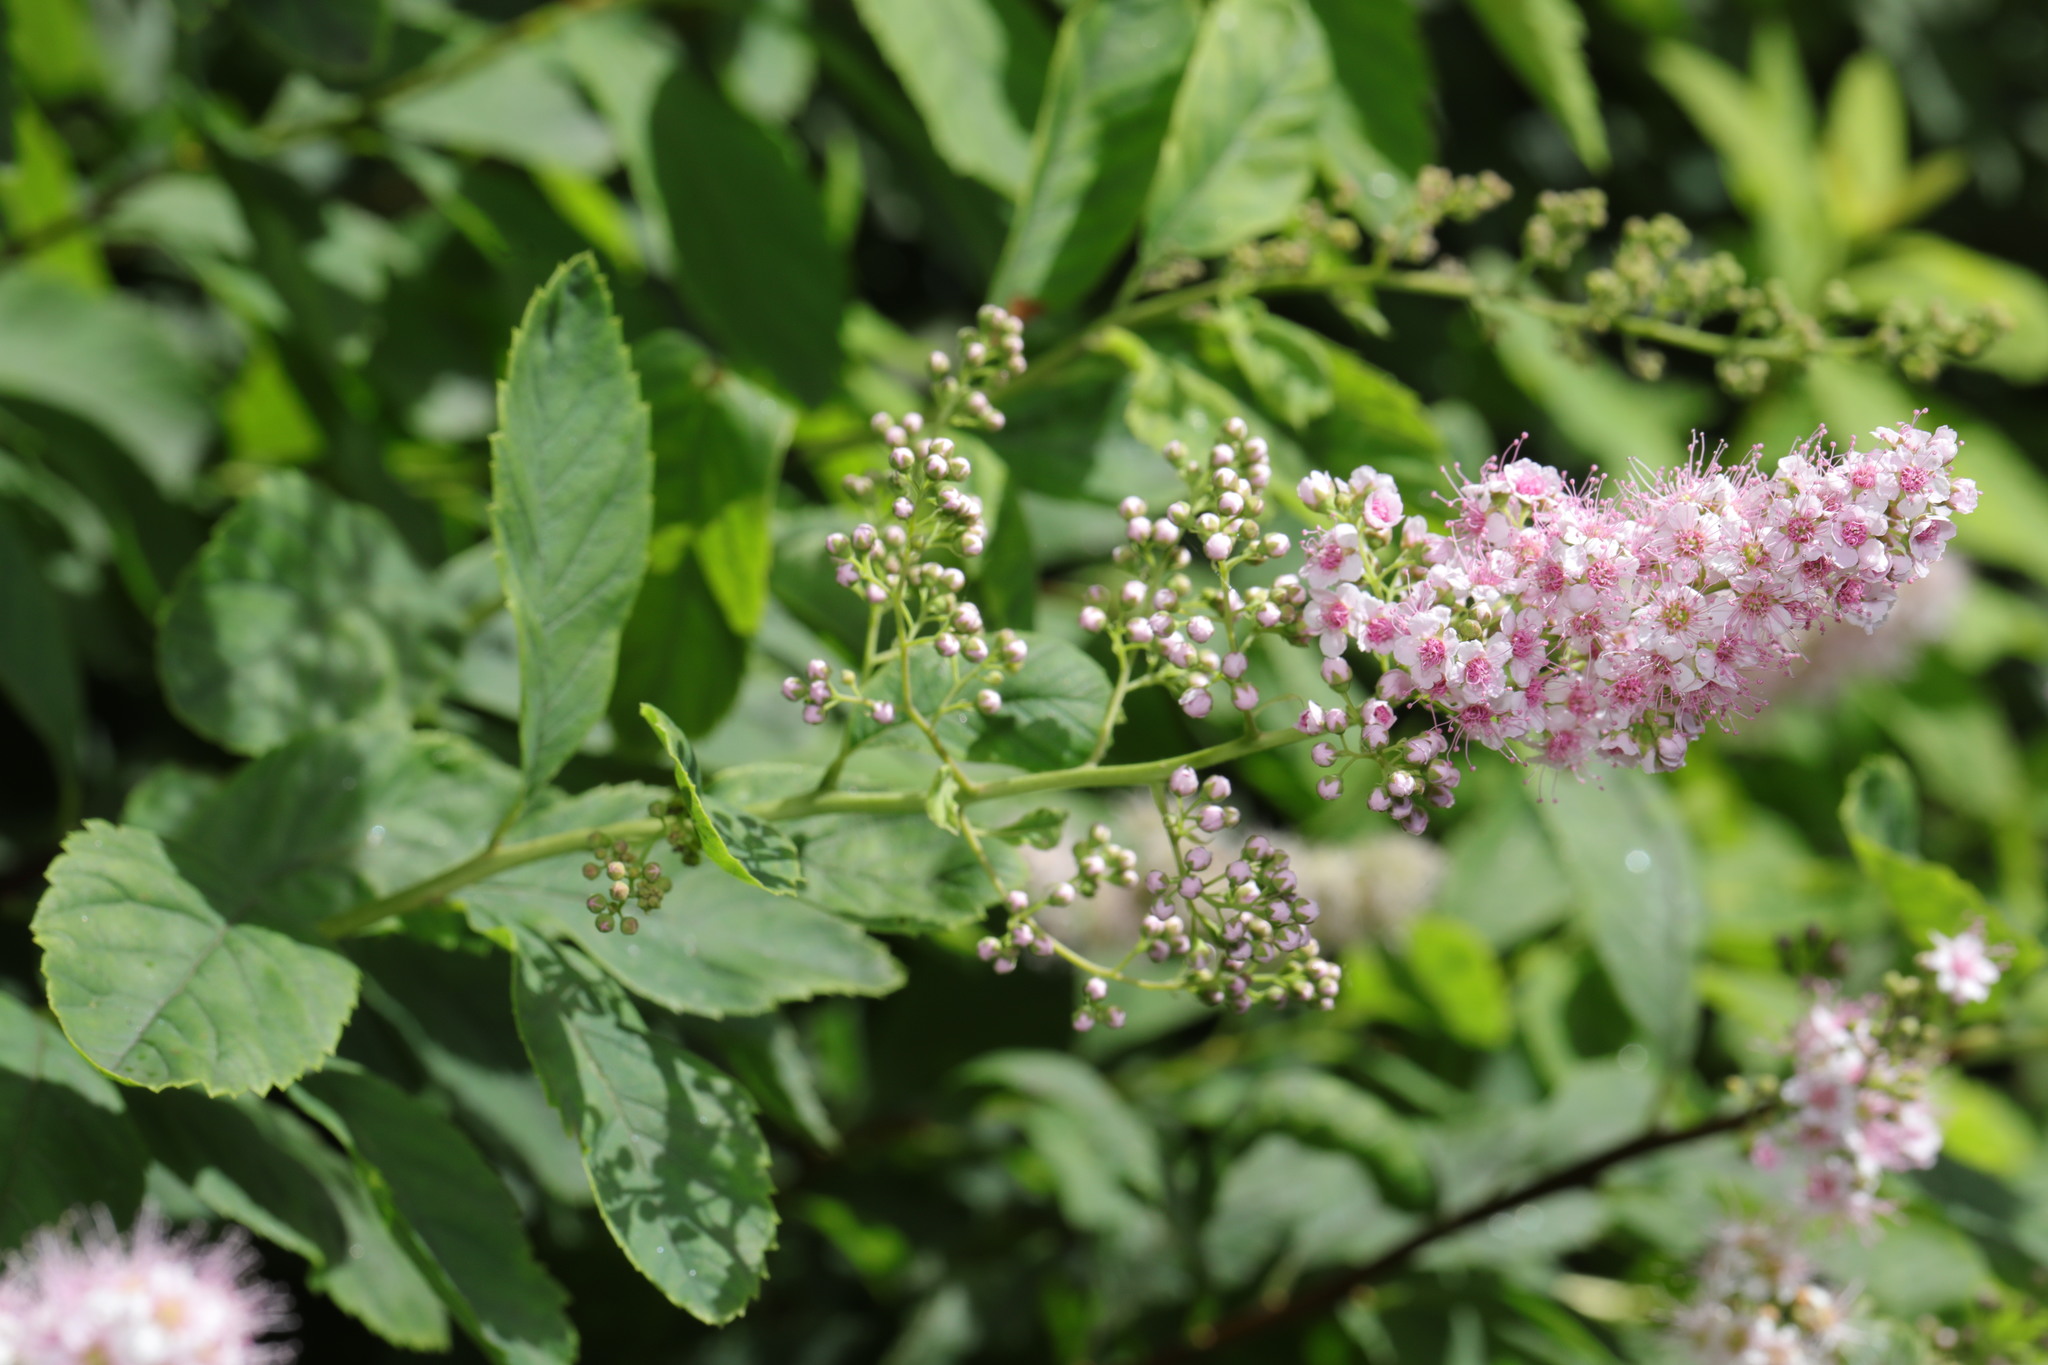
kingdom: Plantae
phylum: Tracheophyta
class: Magnoliopsida
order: Rosales
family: Rosaceae
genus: Spiraea
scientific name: Spiraea douglasii
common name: Steeplebush
